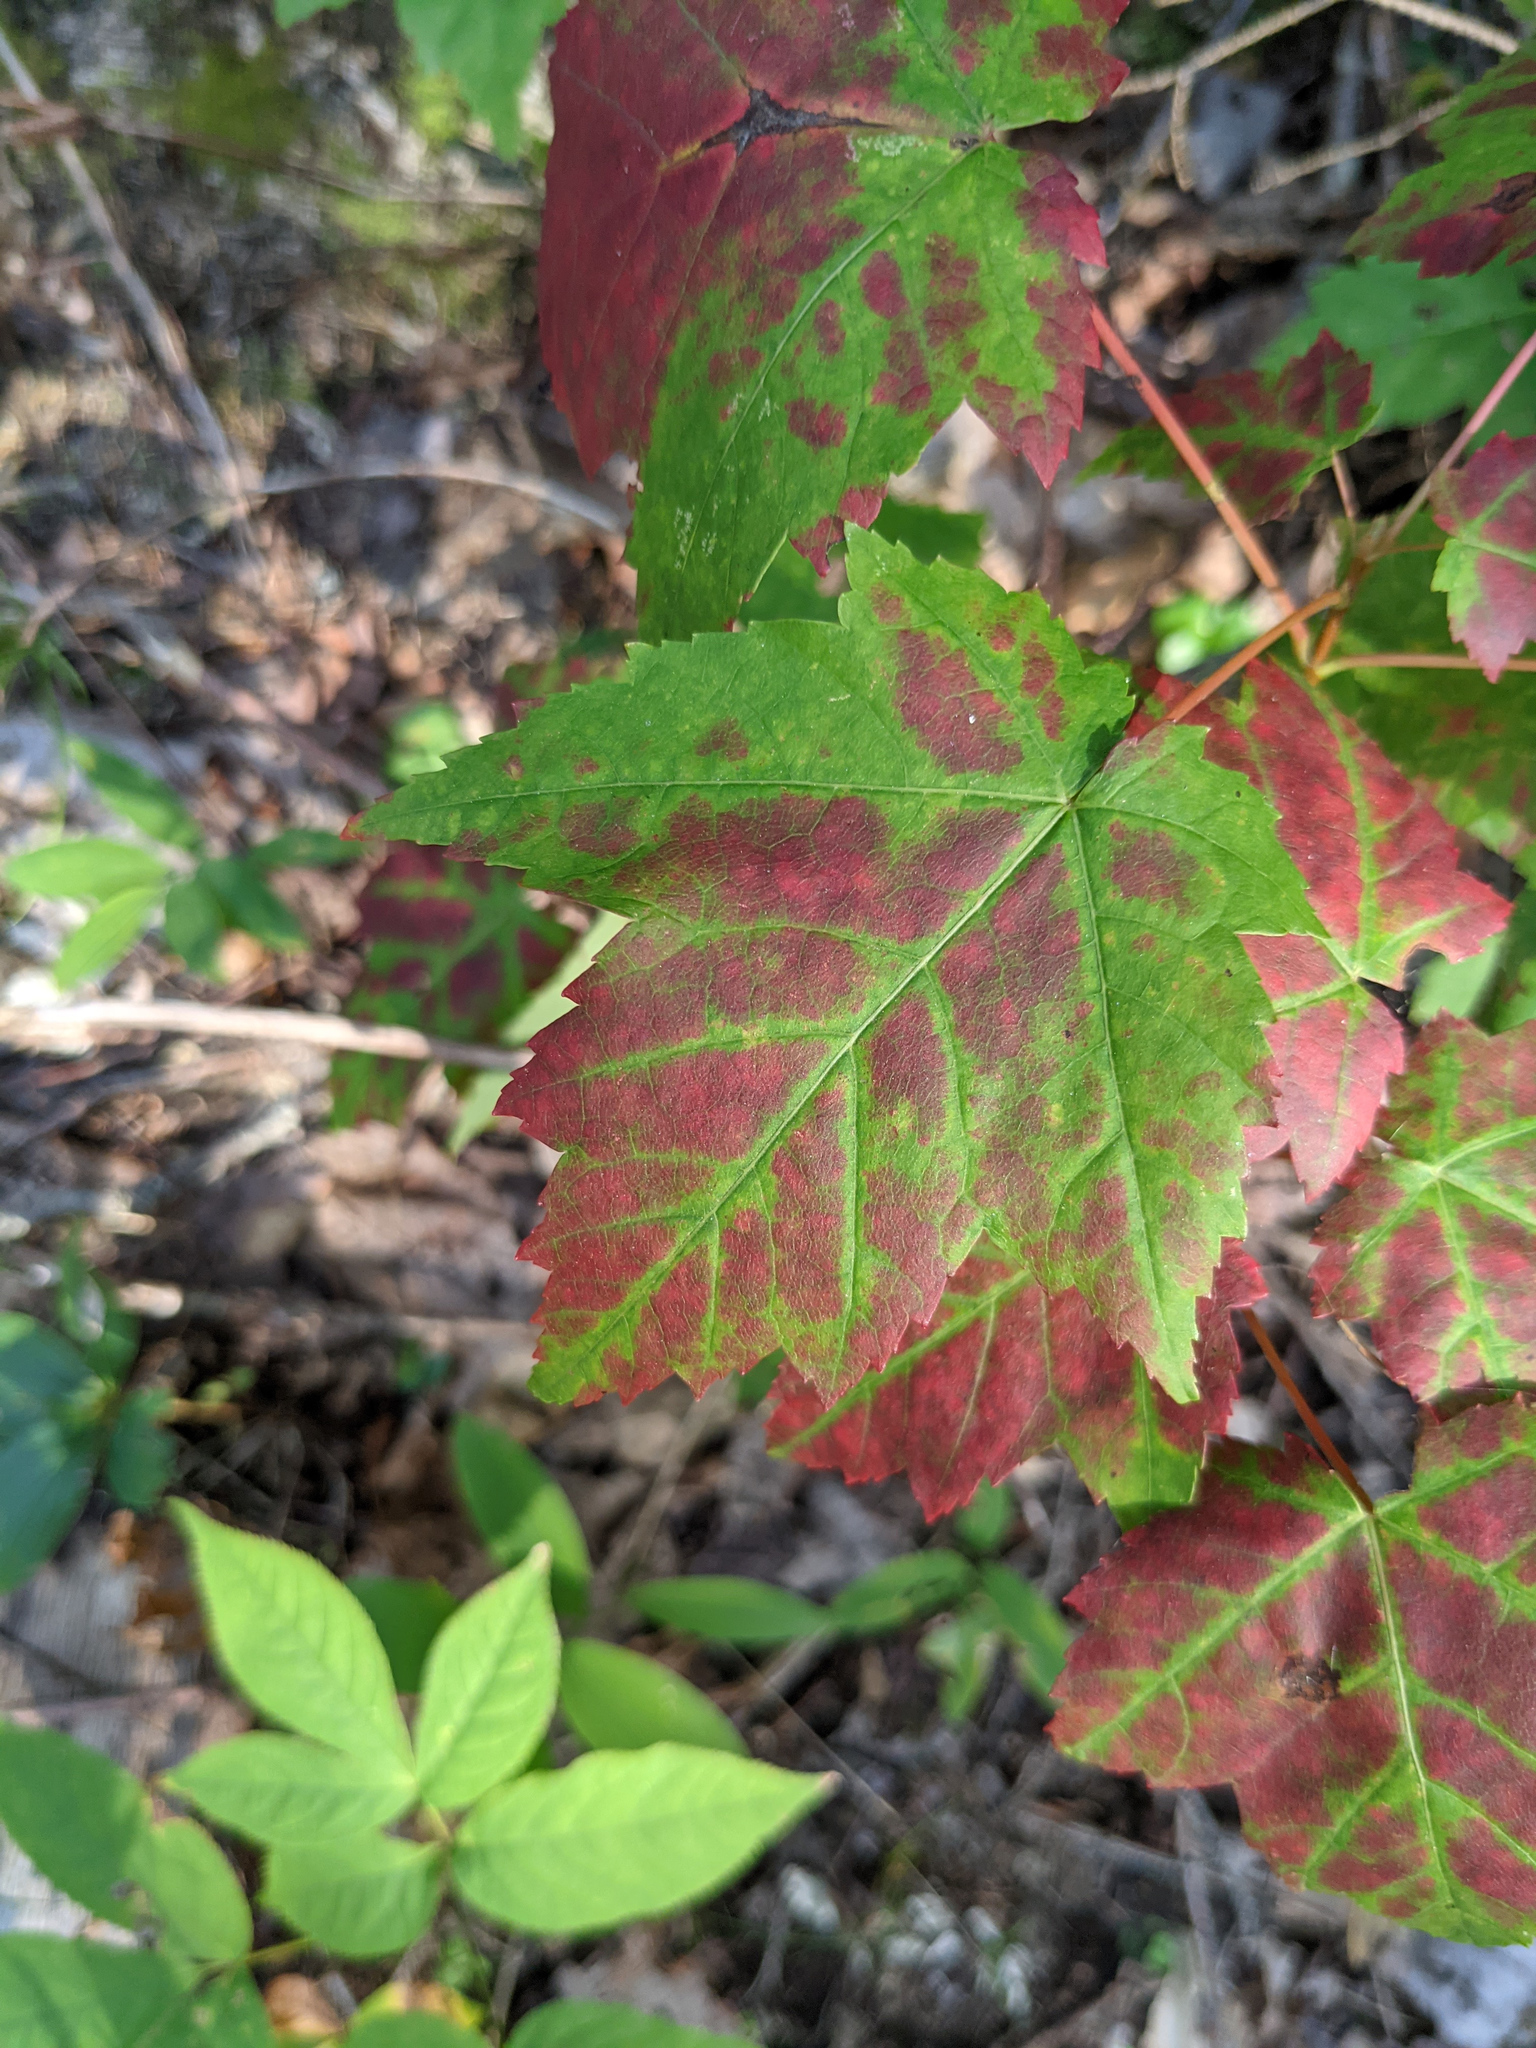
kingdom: Plantae
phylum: Tracheophyta
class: Magnoliopsida
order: Sapindales
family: Sapindaceae
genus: Acer
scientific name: Acer rubrum
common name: Red maple
